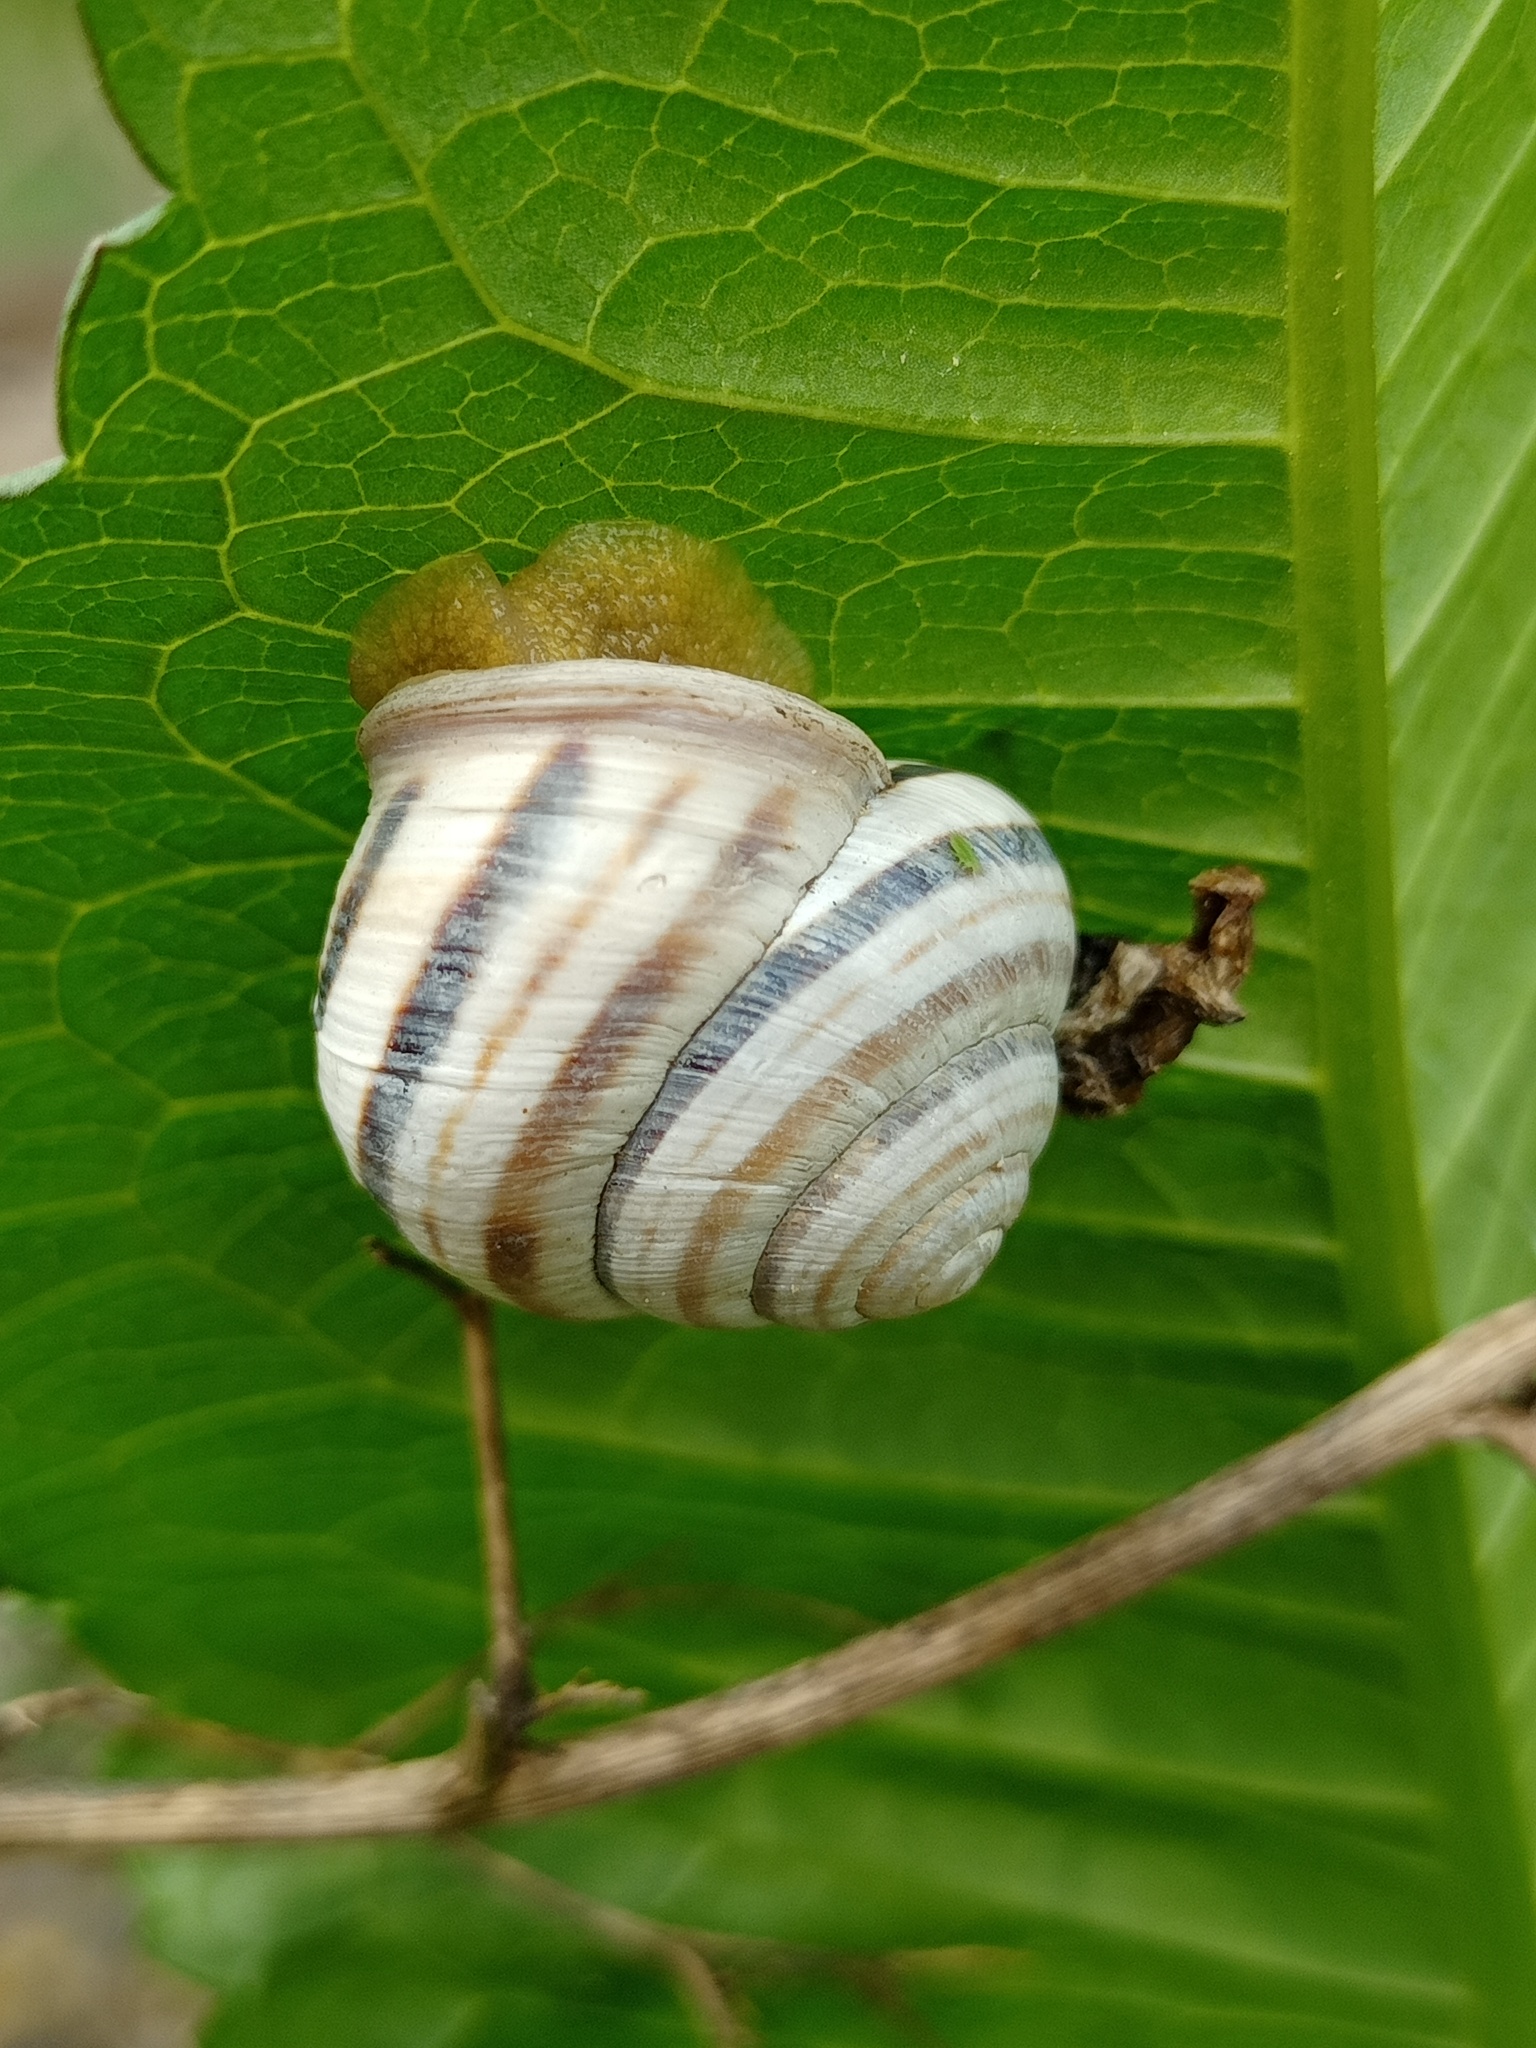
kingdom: Animalia
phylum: Mollusca
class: Gastropoda
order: Stylommatophora
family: Helicidae
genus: Caucasotachea
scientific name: Caucasotachea vindobonensis
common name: European helicid land snail
